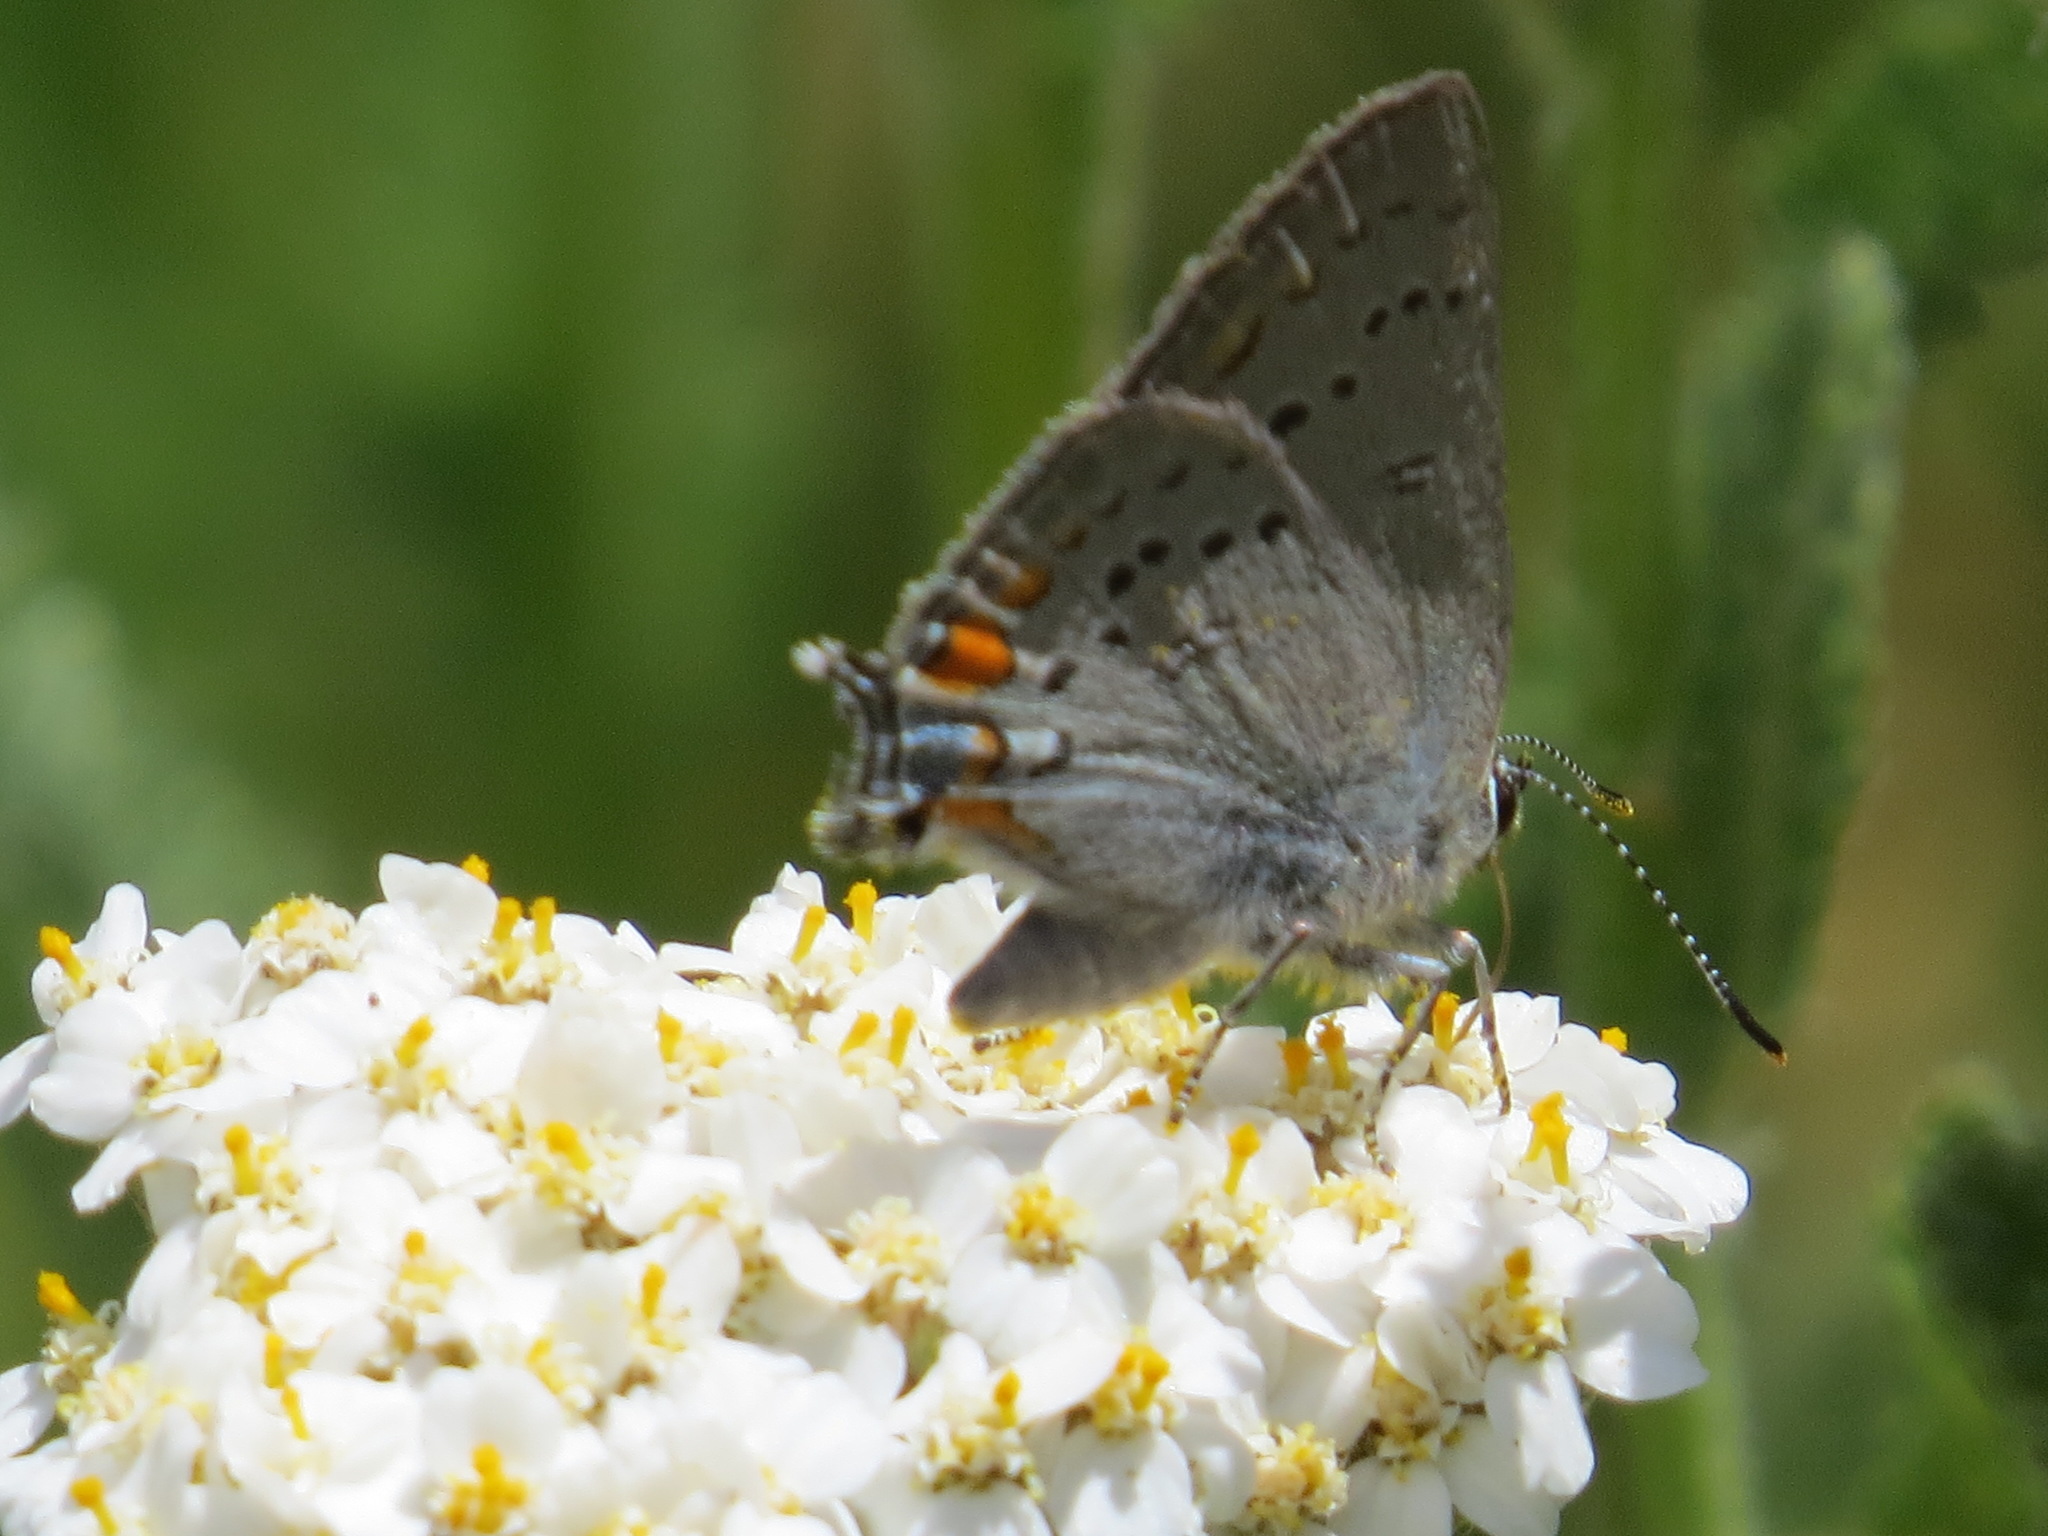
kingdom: Animalia
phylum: Arthropoda
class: Insecta
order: Lepidoptera
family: Lycaenidae
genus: Strymon
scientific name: Strymon acadica
